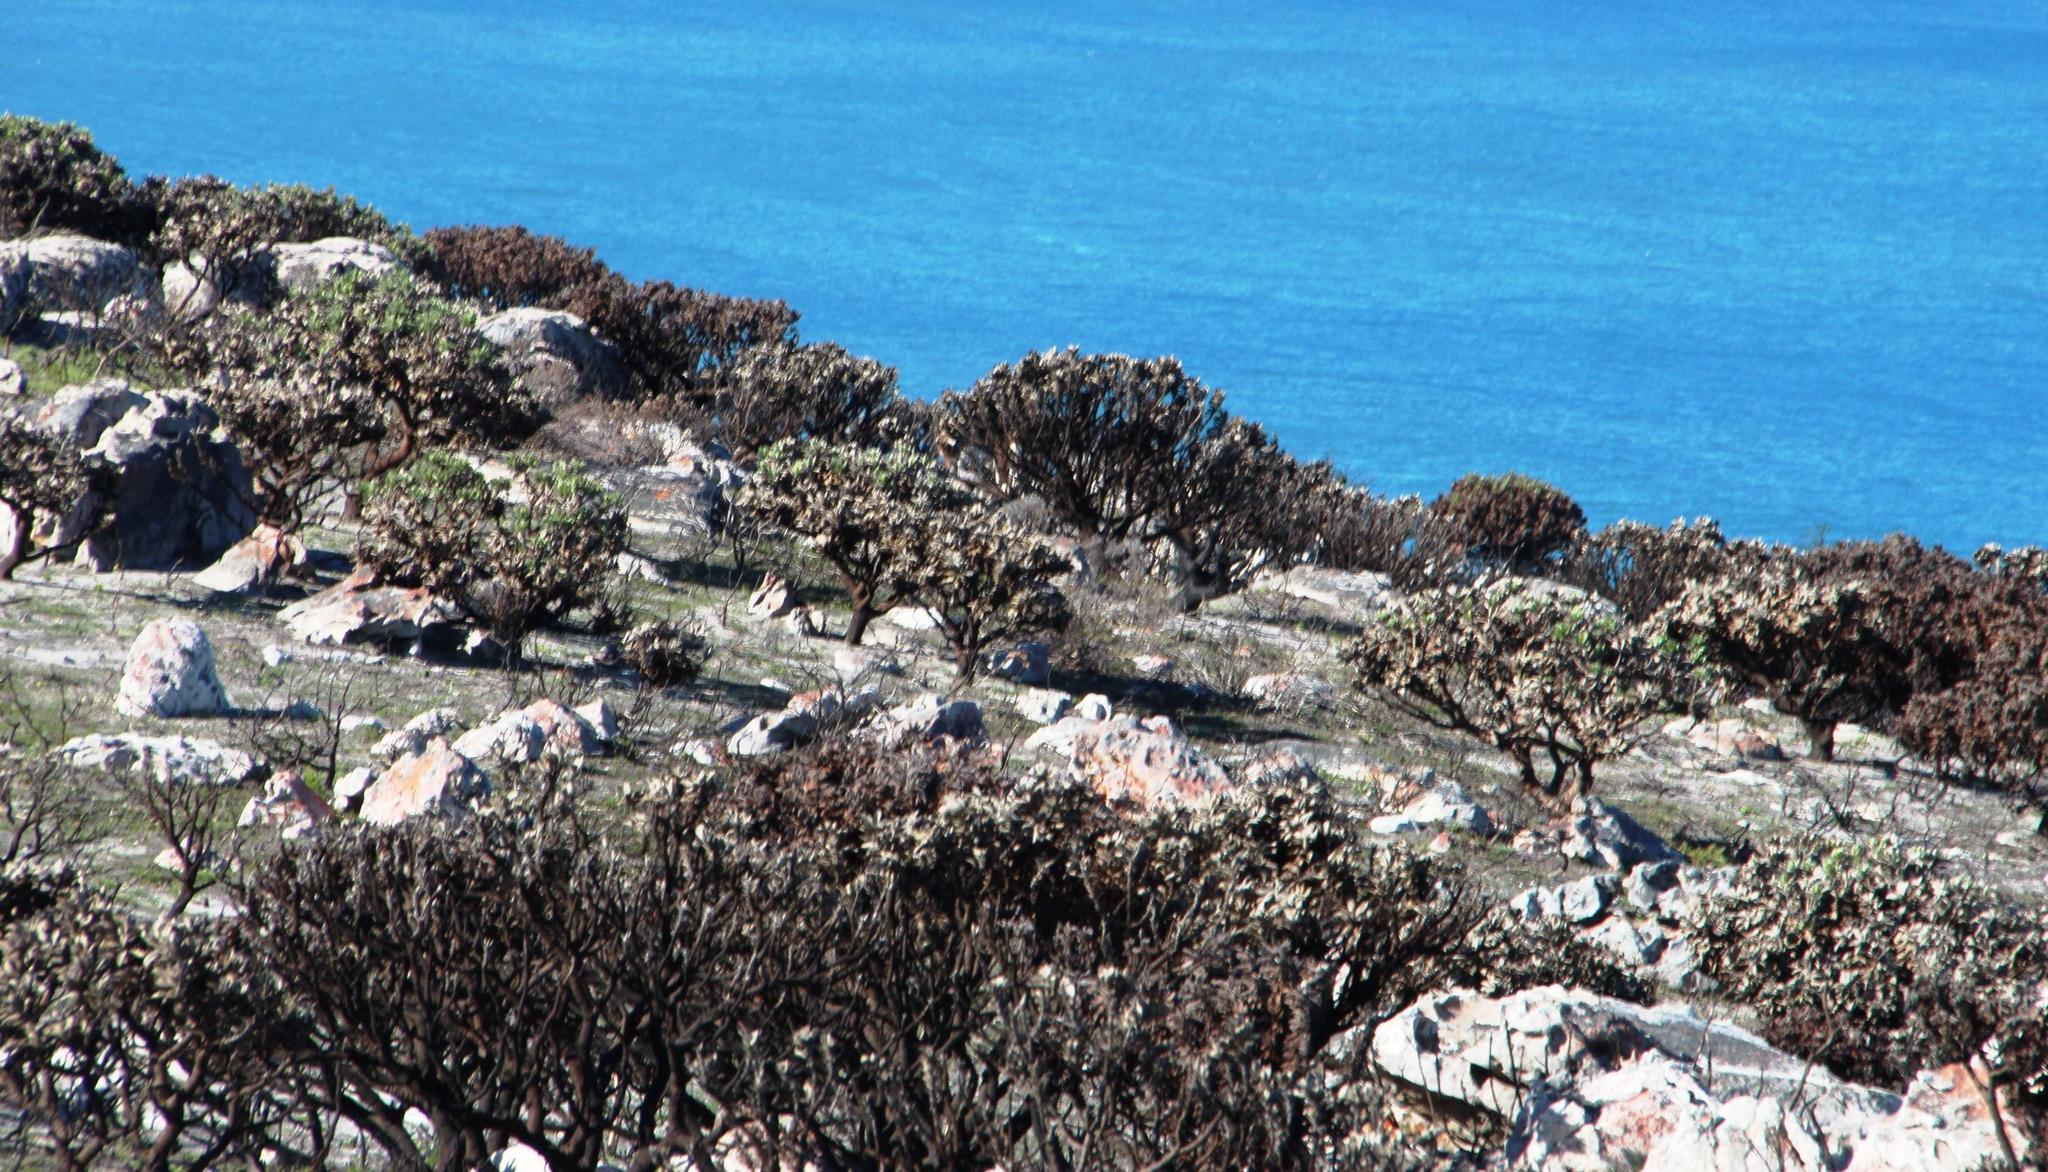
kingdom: Plantae
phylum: Tracheophyta
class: Magnoliopsida
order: Proteales
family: Proteaceae
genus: Leucospermum
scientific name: Leucospermum conocarpodendron
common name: Tree pincushion
